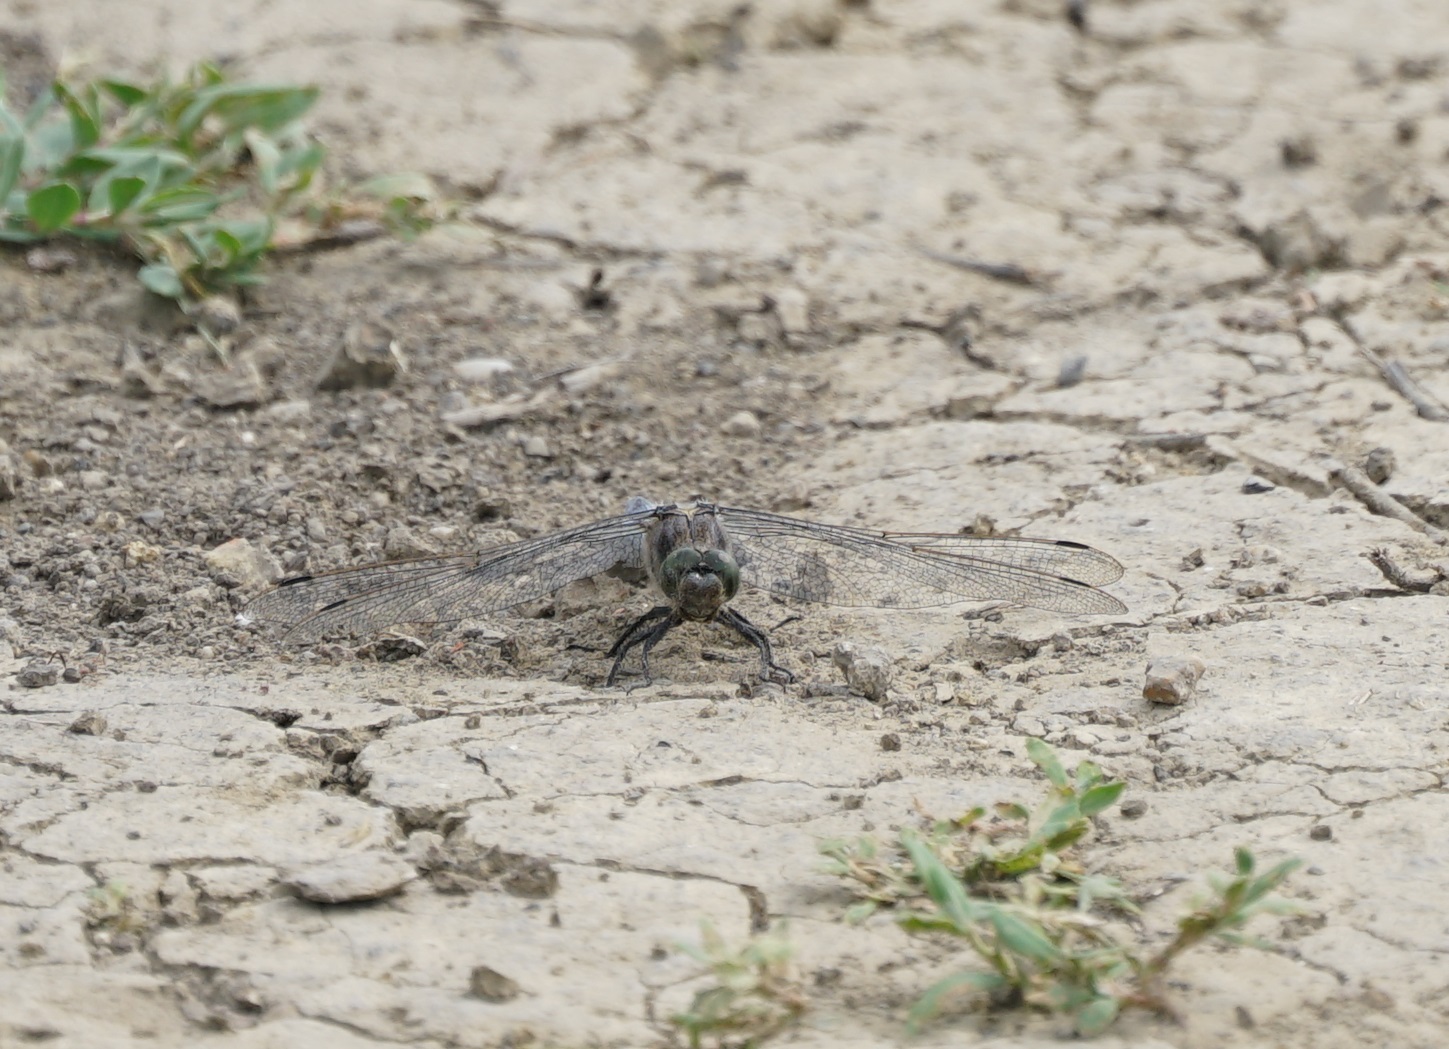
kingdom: Animalia
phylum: Arthropoda
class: Insecta
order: Odonata
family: Libellulidae
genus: Orthetrum
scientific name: Orthetrum cancellatum
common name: Black-tailed skimmer
